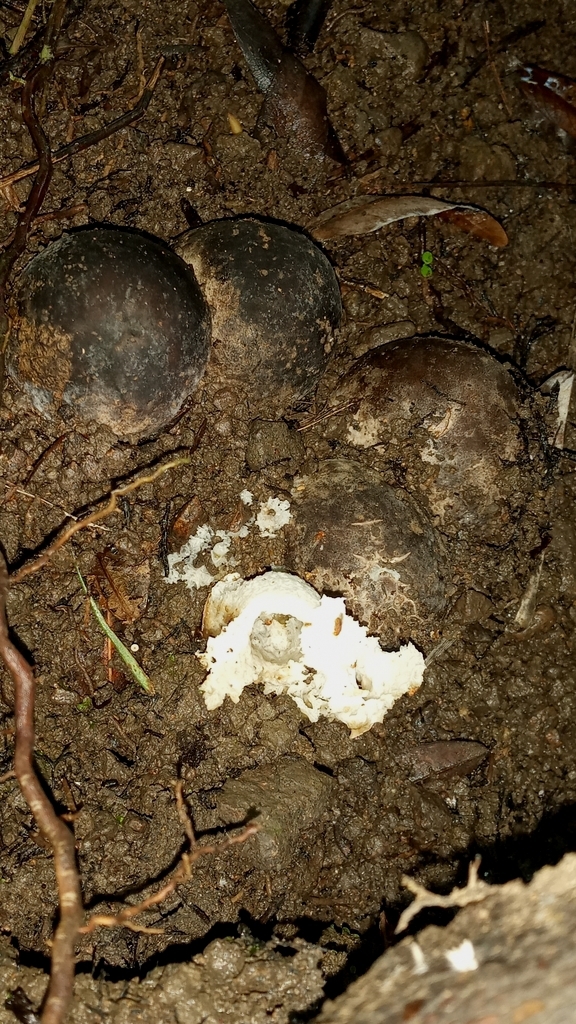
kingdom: Fungi
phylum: Basidiomycota
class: Agaricomycetes
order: Phallales
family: Phallaceae
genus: Phallus
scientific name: Phallus merulinus
